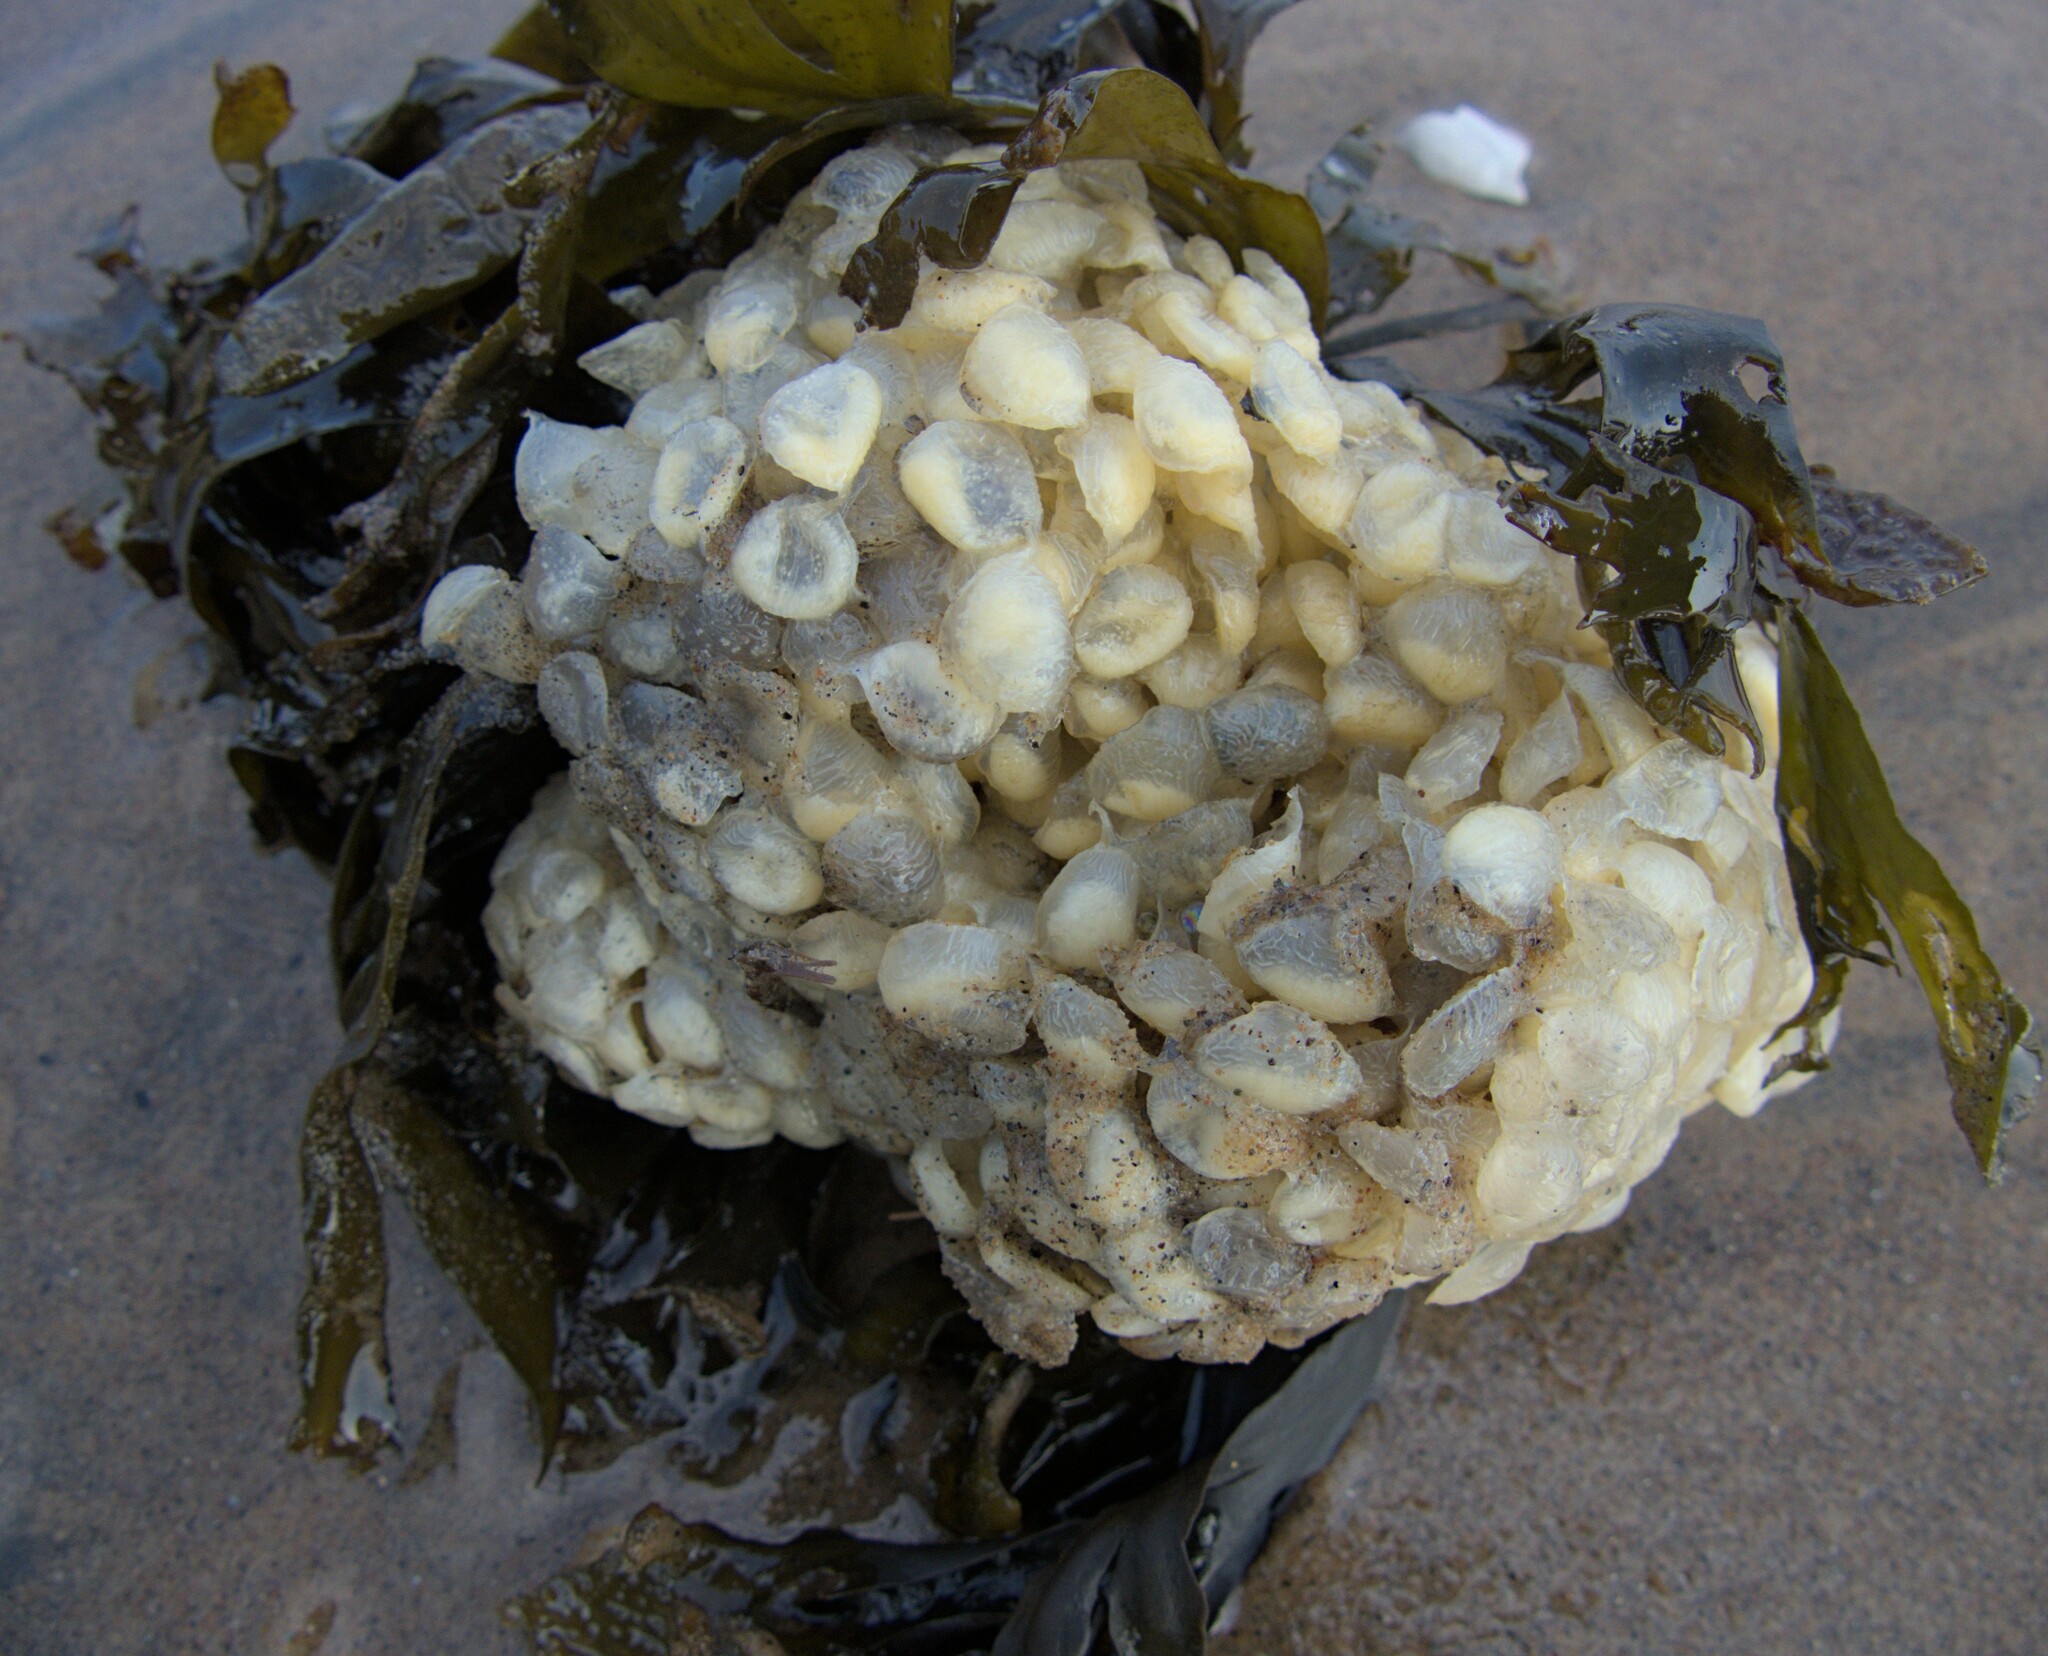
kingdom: Animalia
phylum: Mollusca
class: Gastropoda
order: Neogastropoda
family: Buccinidae
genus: Buccinum
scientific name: Buccinum undatum
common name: Common whelk
